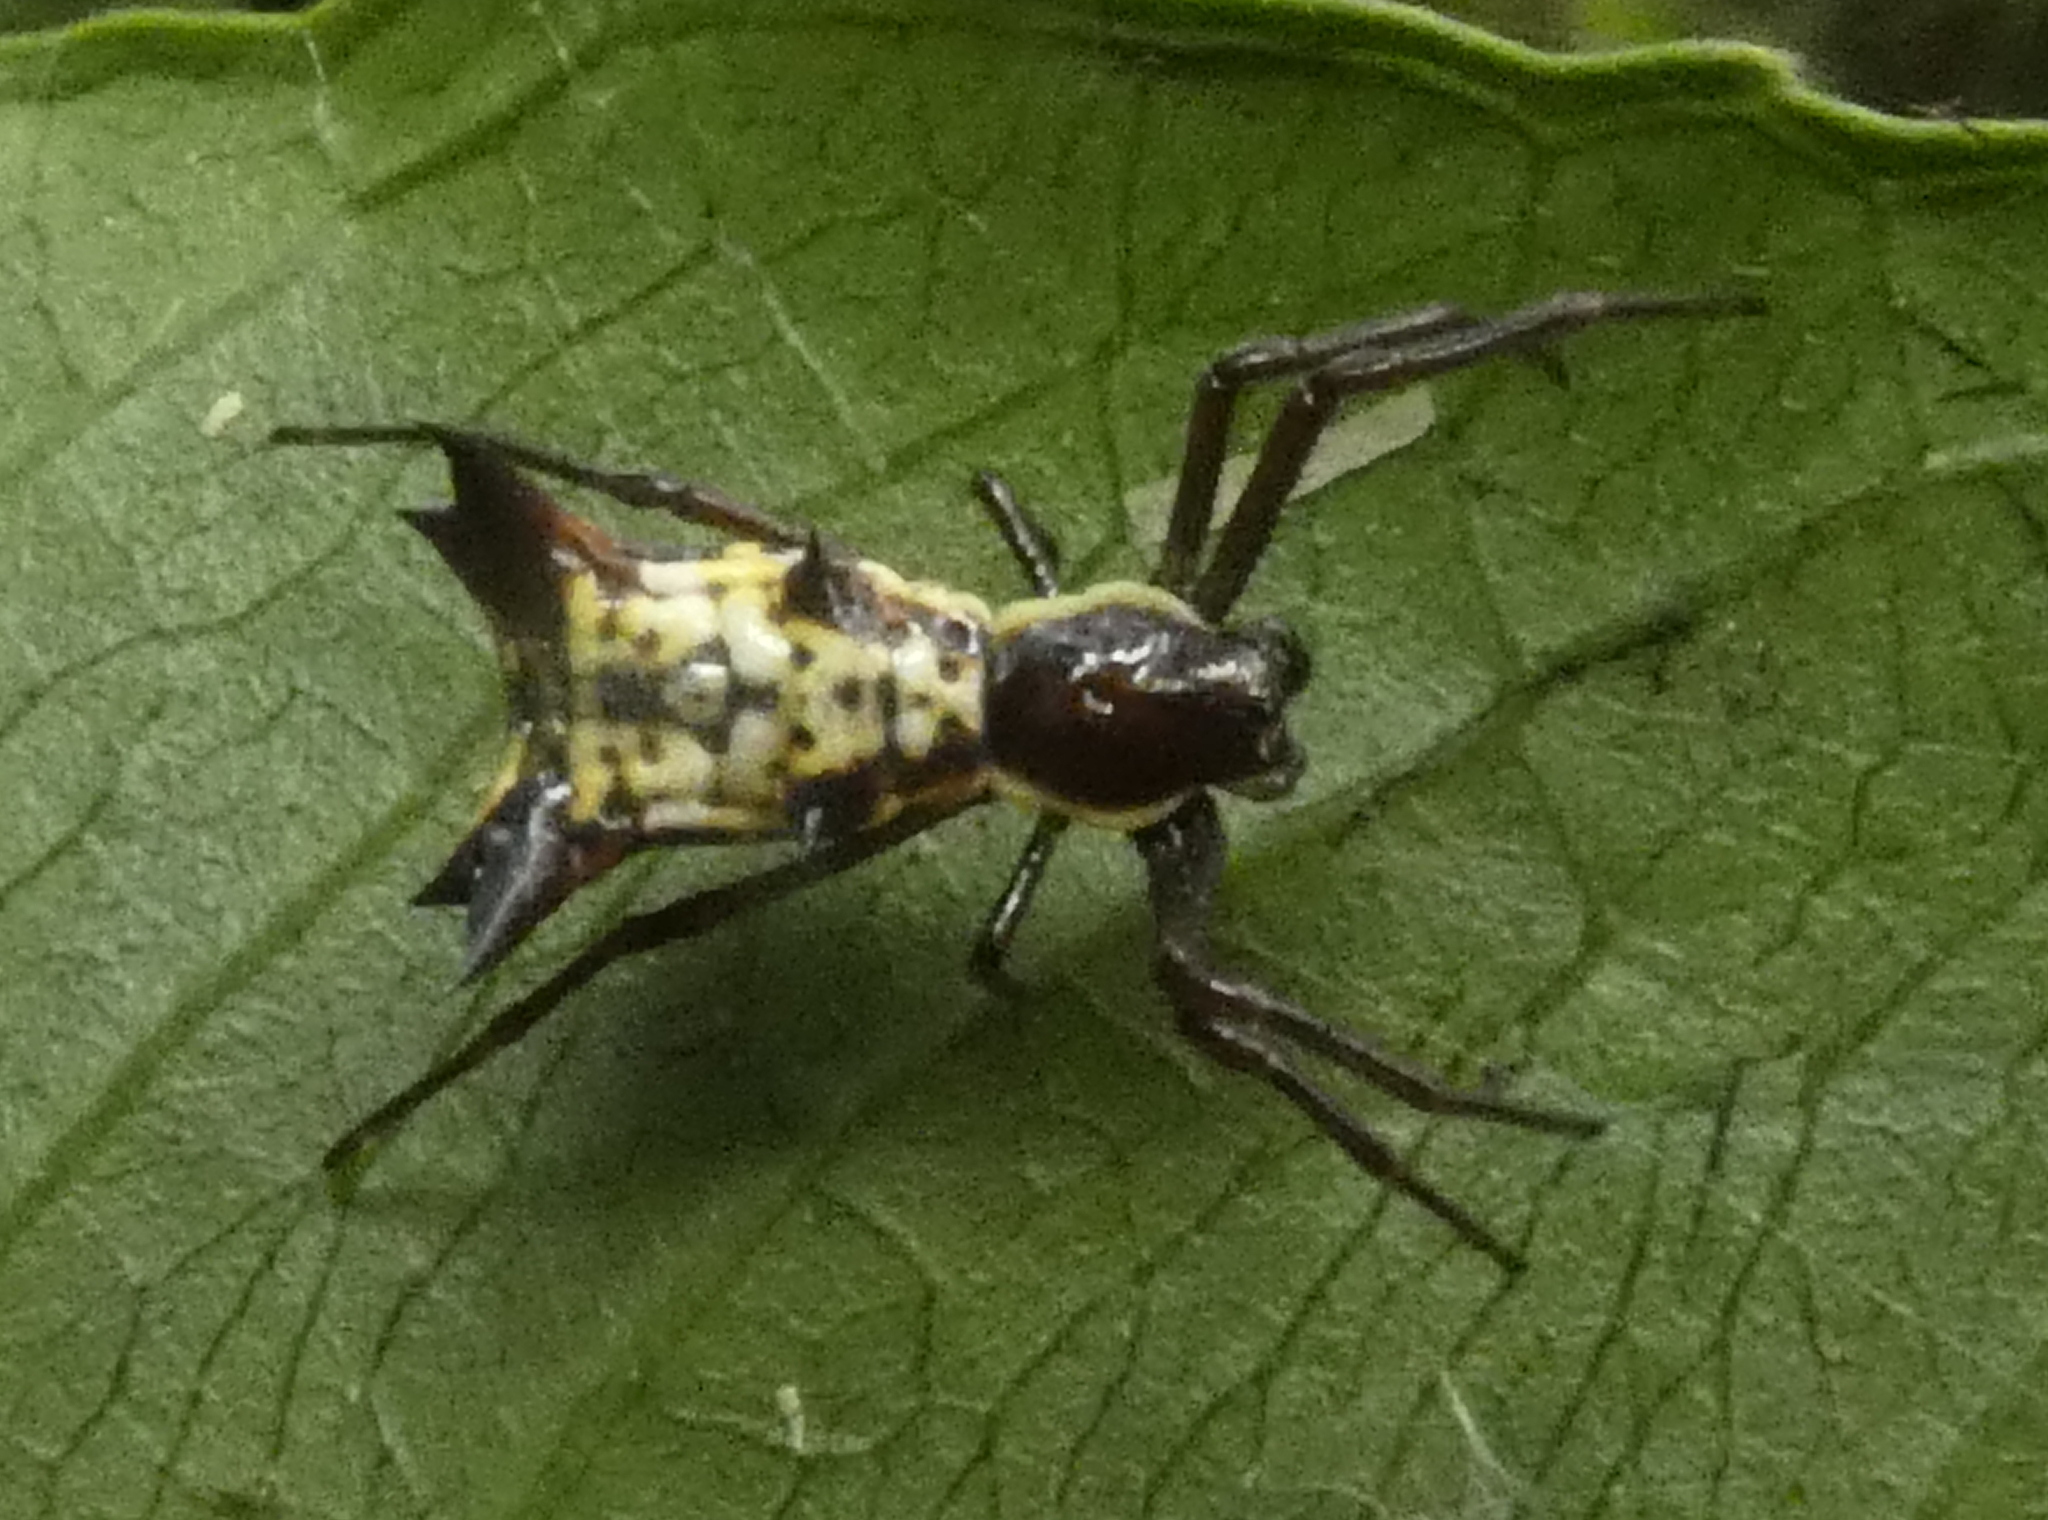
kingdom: Animalia
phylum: Arthropoda
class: Arachnida
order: Araneae
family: Araneidae
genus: Micrathena
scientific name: Micrathena fissispina
